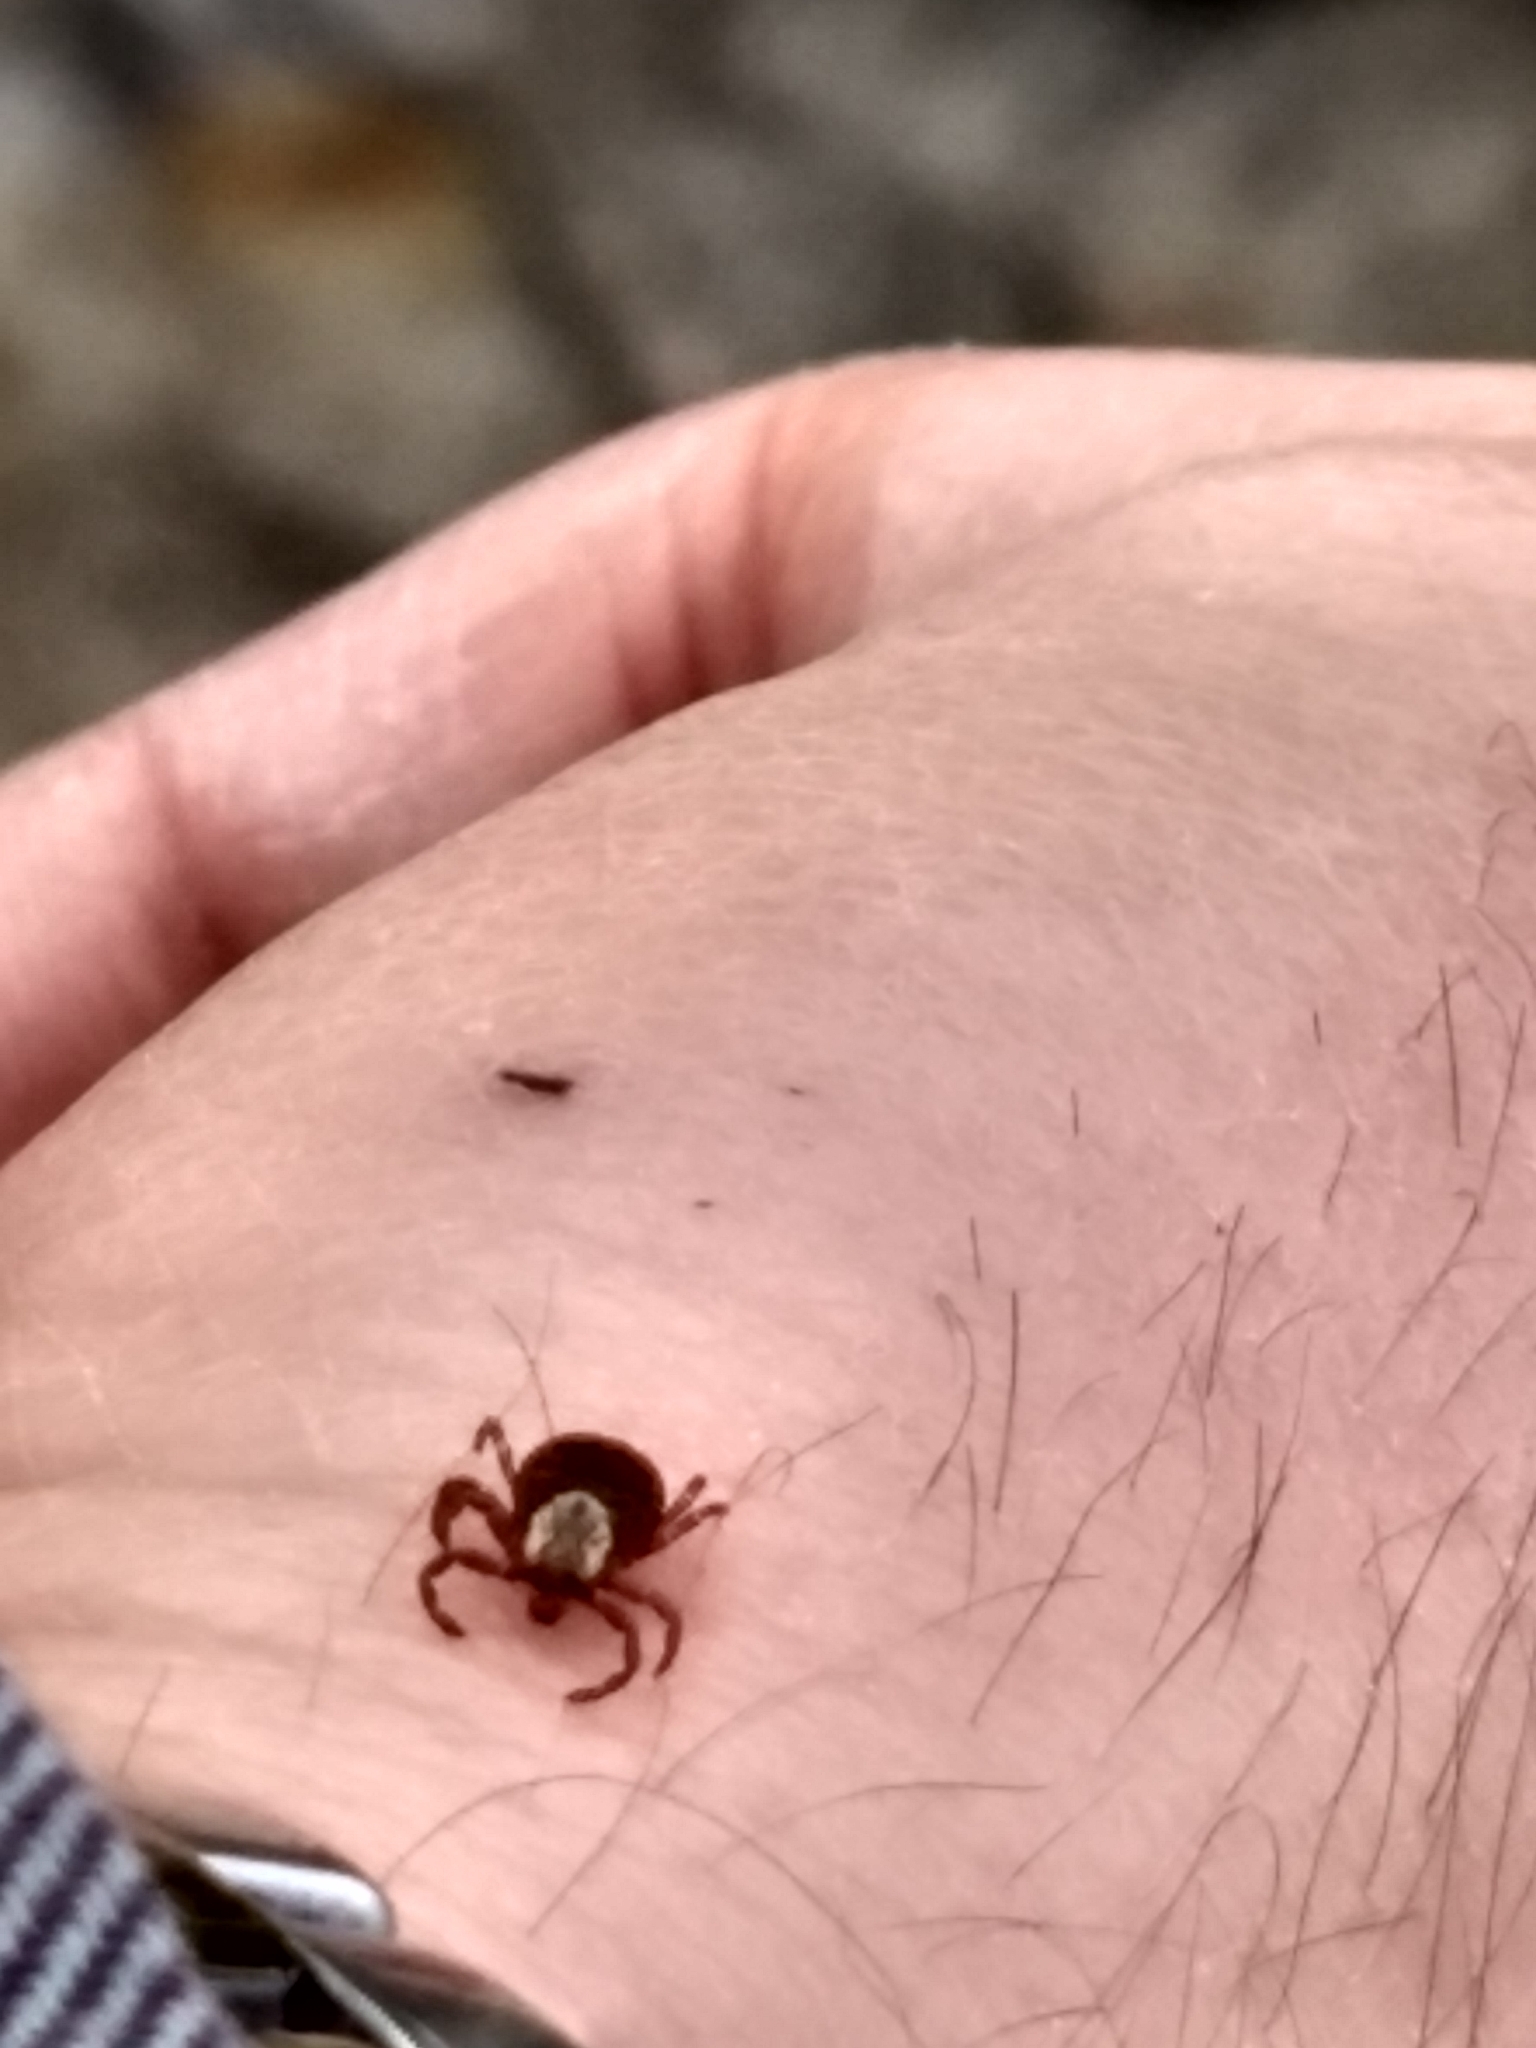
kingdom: Animalia
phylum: Arthropoda
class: Arachnida
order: Ixodida
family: Ixodidae
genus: Dermacentor
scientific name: Dermacentor variabilis
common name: American dog tick
